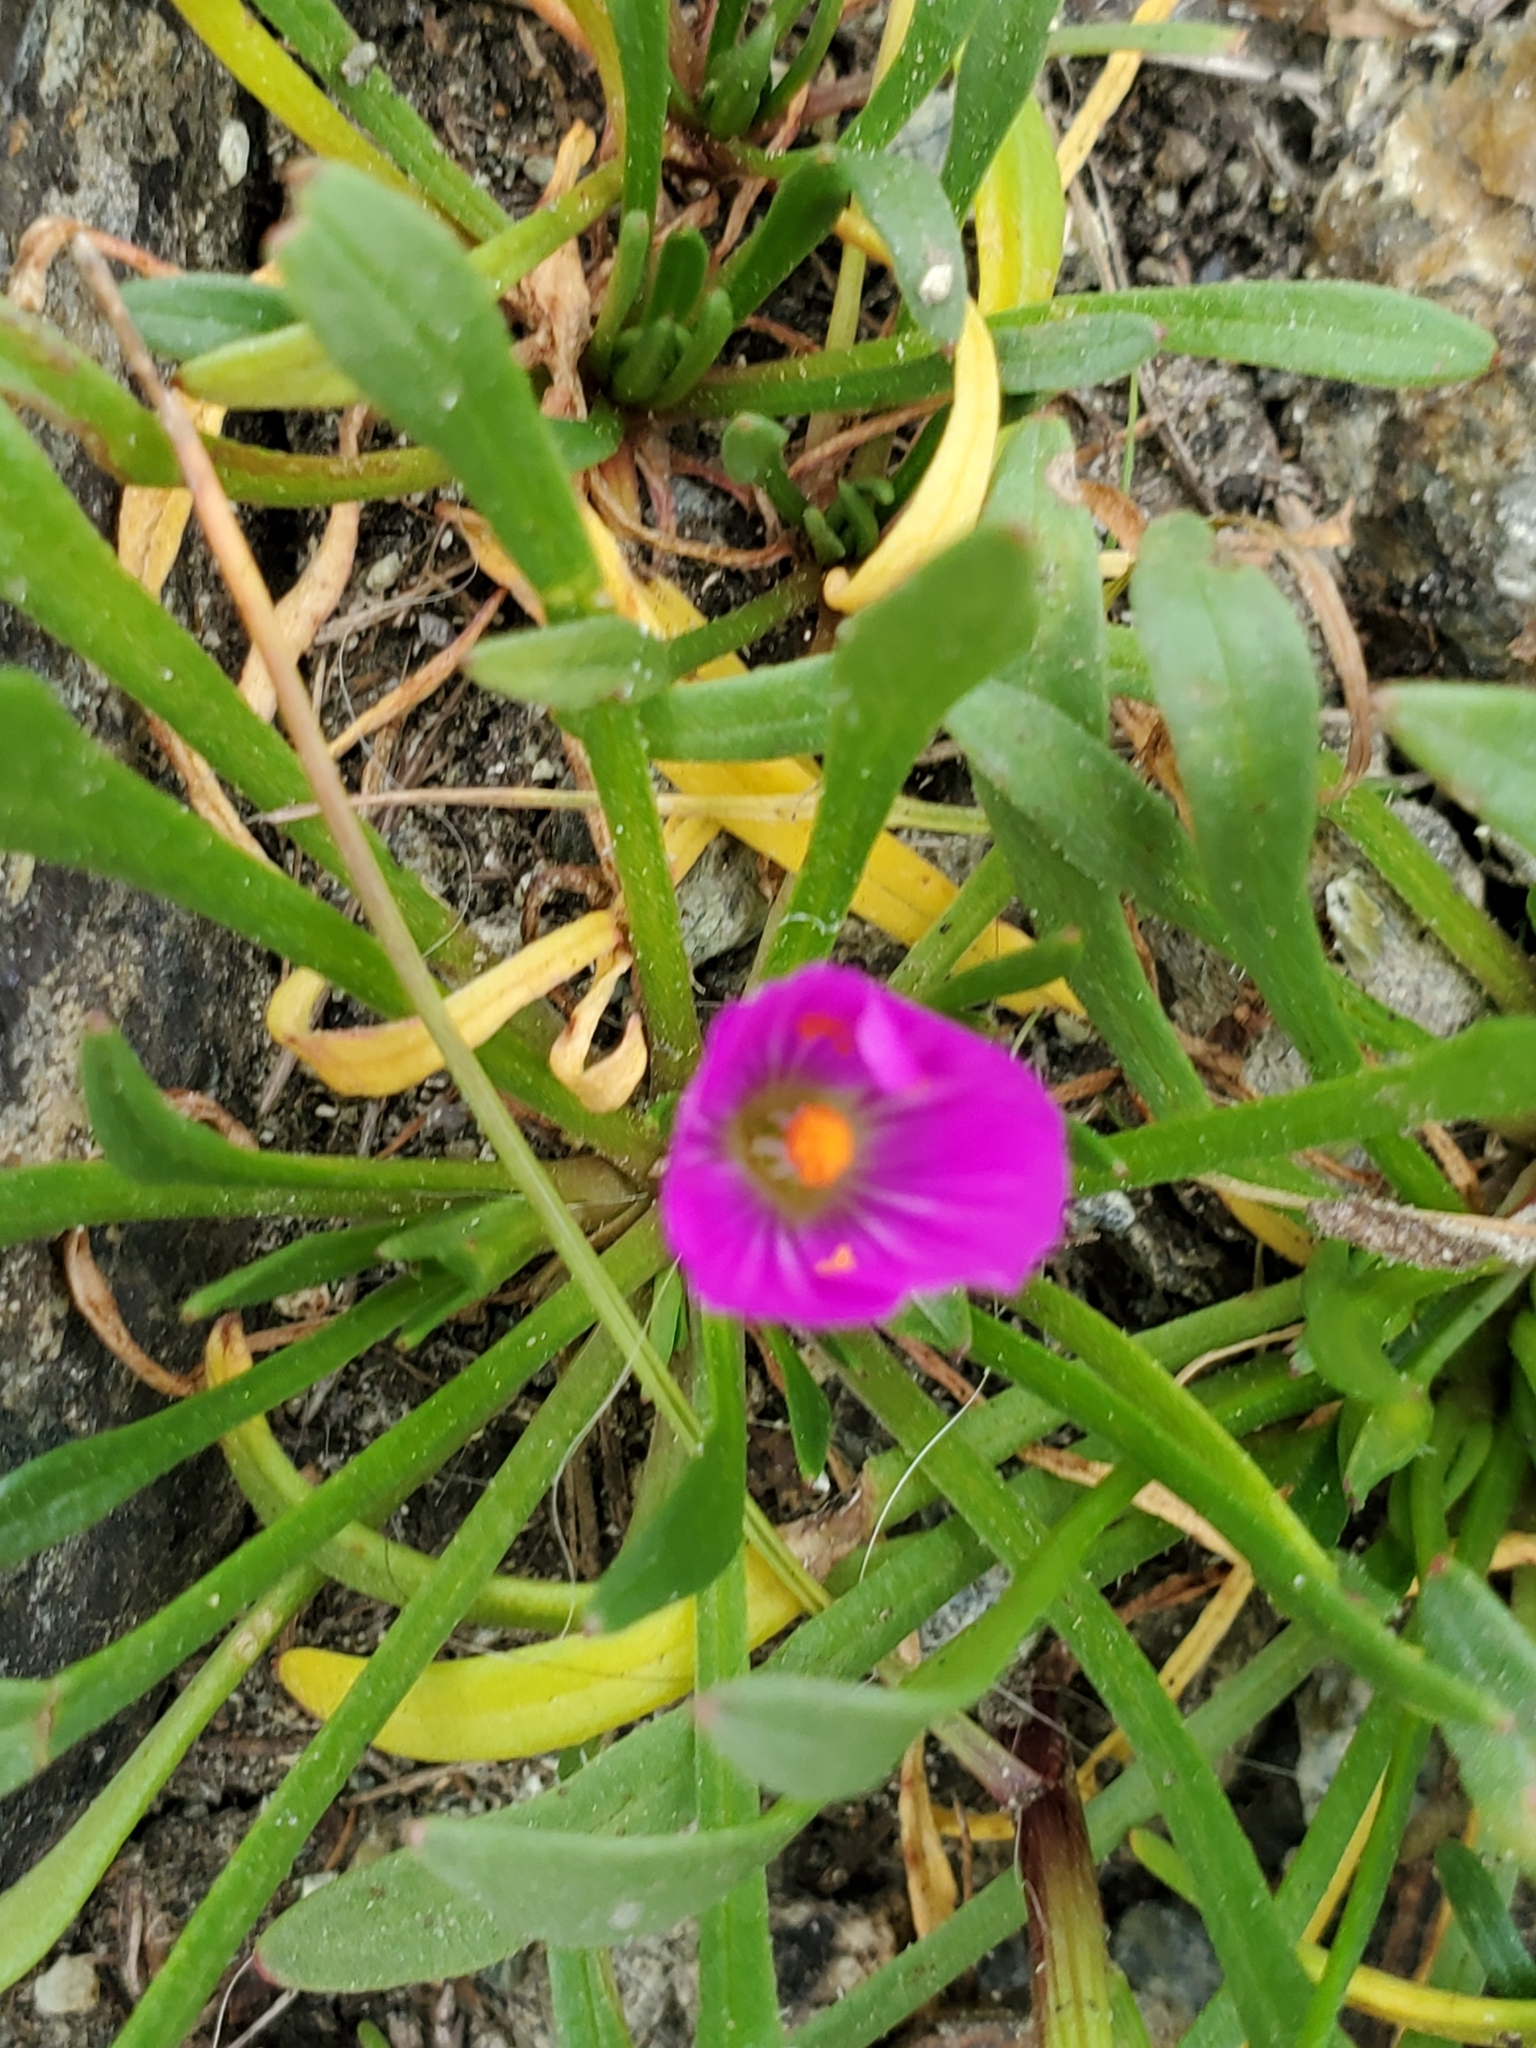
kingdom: Plantae
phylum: Tracheophyta
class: Magnoliopsida
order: Caryophyllales
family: Montiaceae
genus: Calandrinia
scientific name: Calandrinia menziesii
